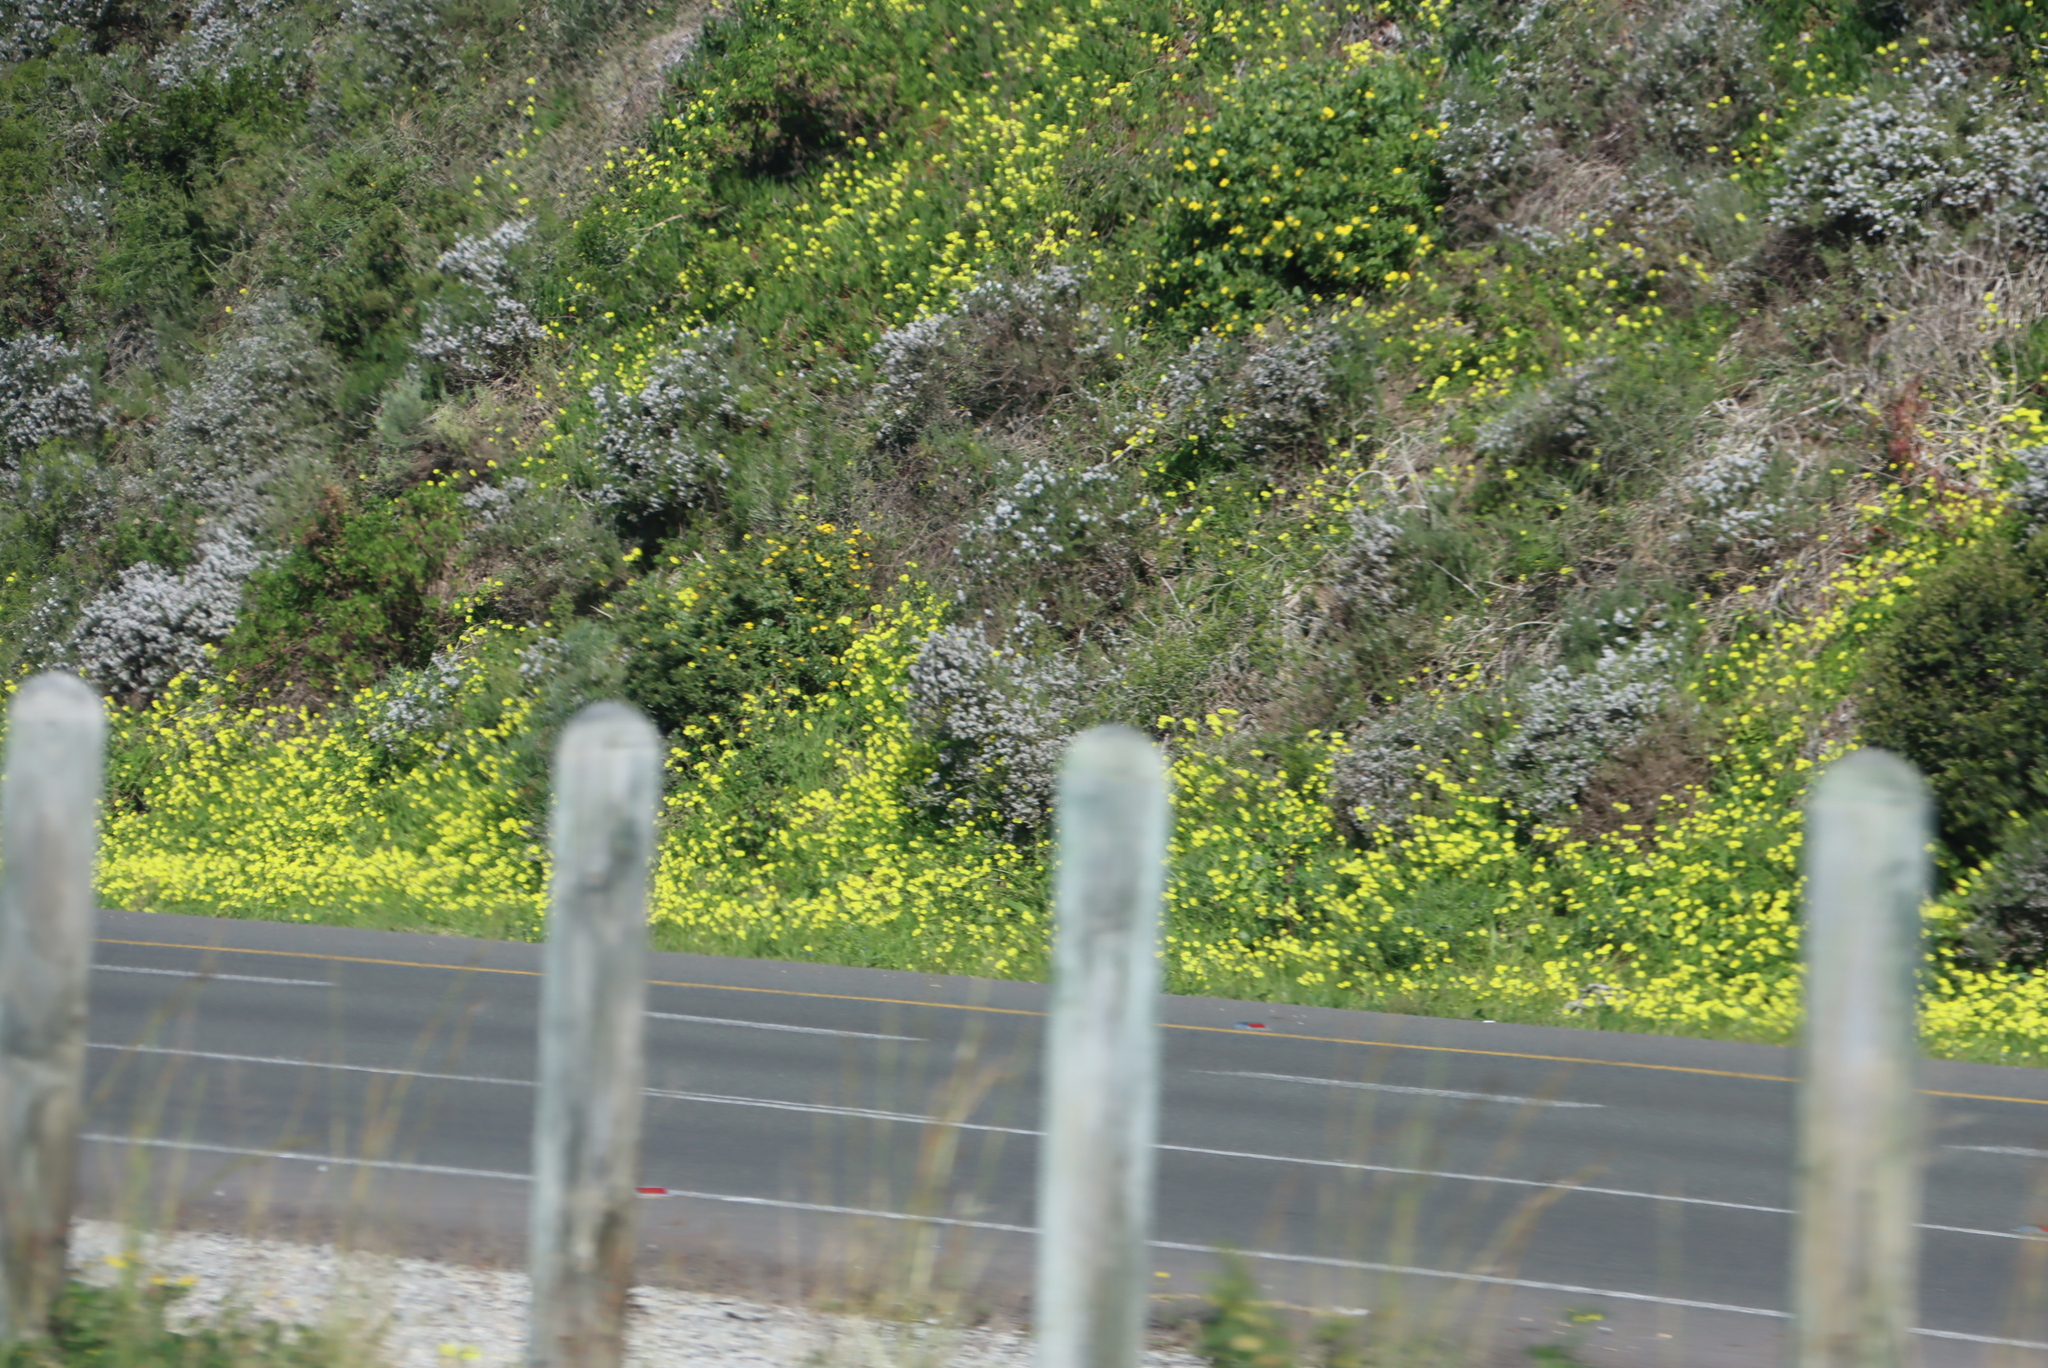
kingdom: Plantae
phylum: Tracheophyta
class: Magnoliopsida
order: Oxalidales
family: Oxalidaceae
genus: Oxalis
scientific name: Oxalis pes-caprae
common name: Bermuda-buttercup
